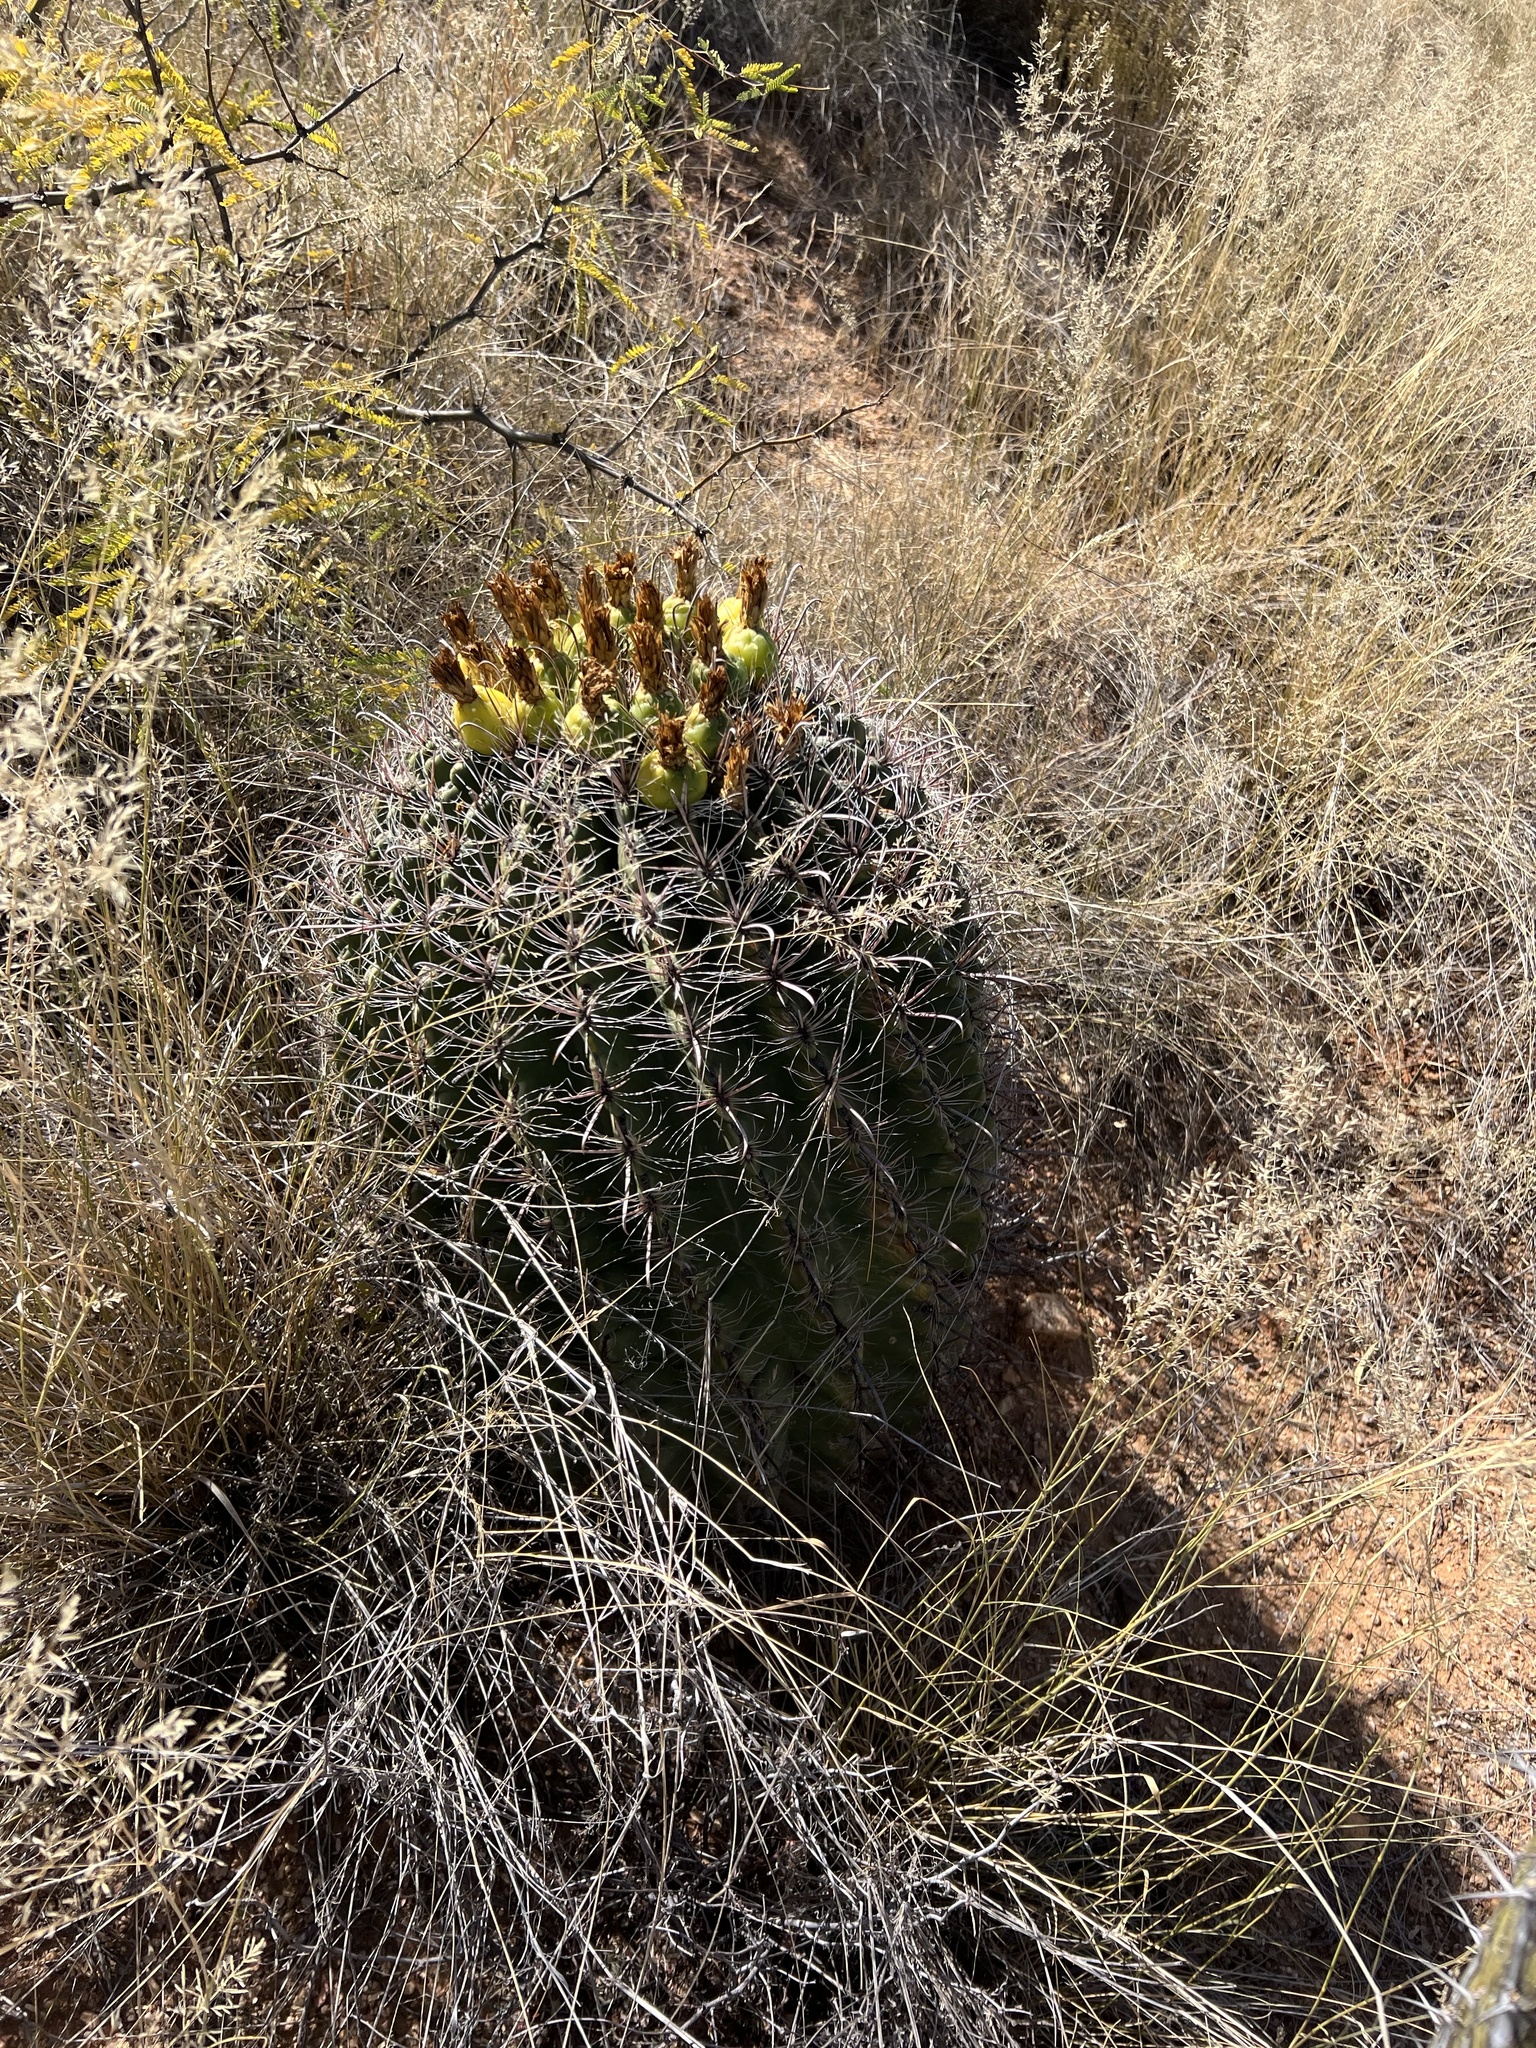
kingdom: Plantae
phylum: Tracheophyta
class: Magnoliopsida
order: Caryophyllales
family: Cactaceae
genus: Ferocactus
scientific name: Ferocactus wislizeni
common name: Candy barrel cactus
